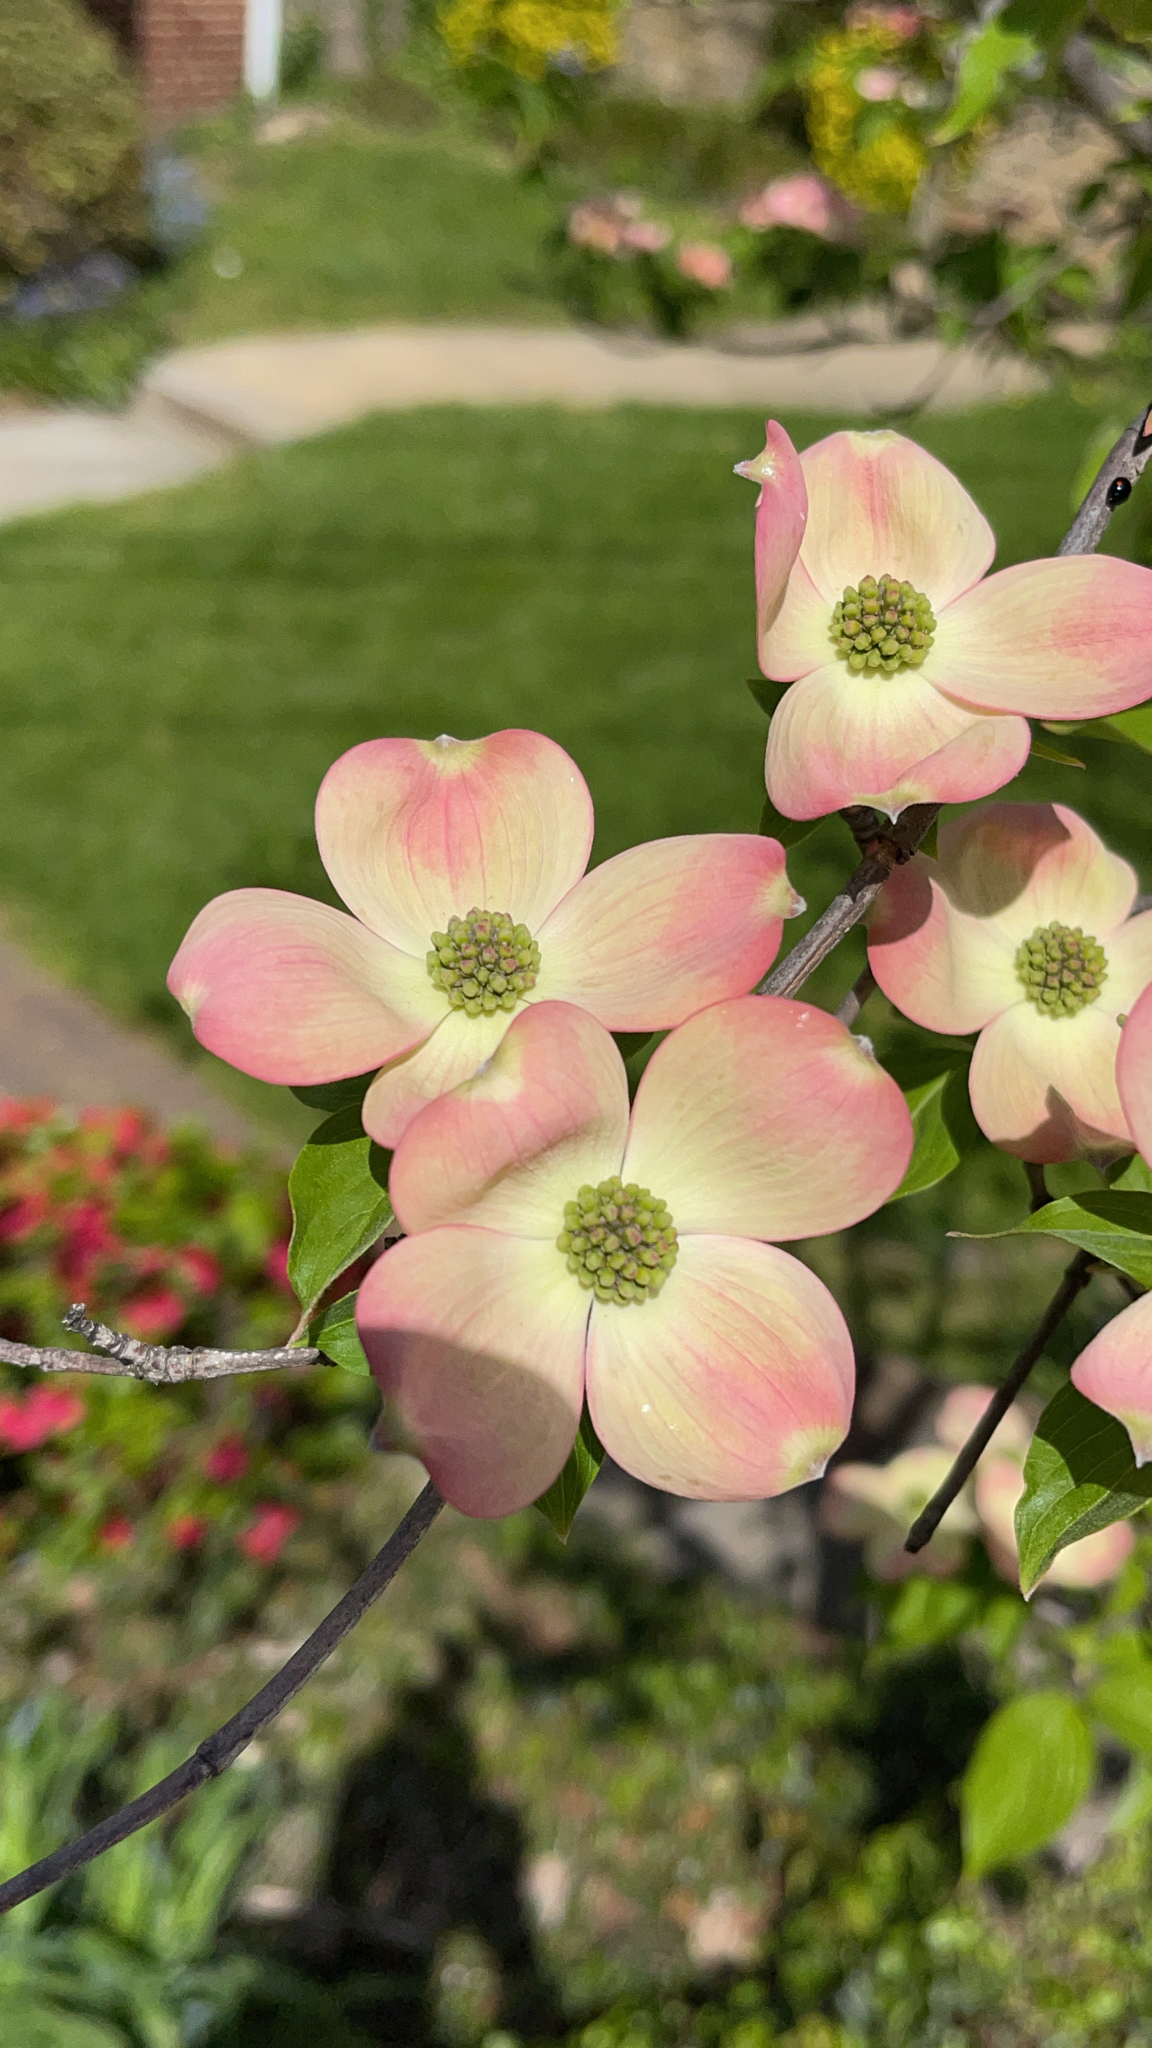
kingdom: Plantae
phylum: Tracheophyta
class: Magnoliopsida
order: Cornales
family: Cornaceae
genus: Cornus
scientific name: Cornus florida
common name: Flowering dogwood
